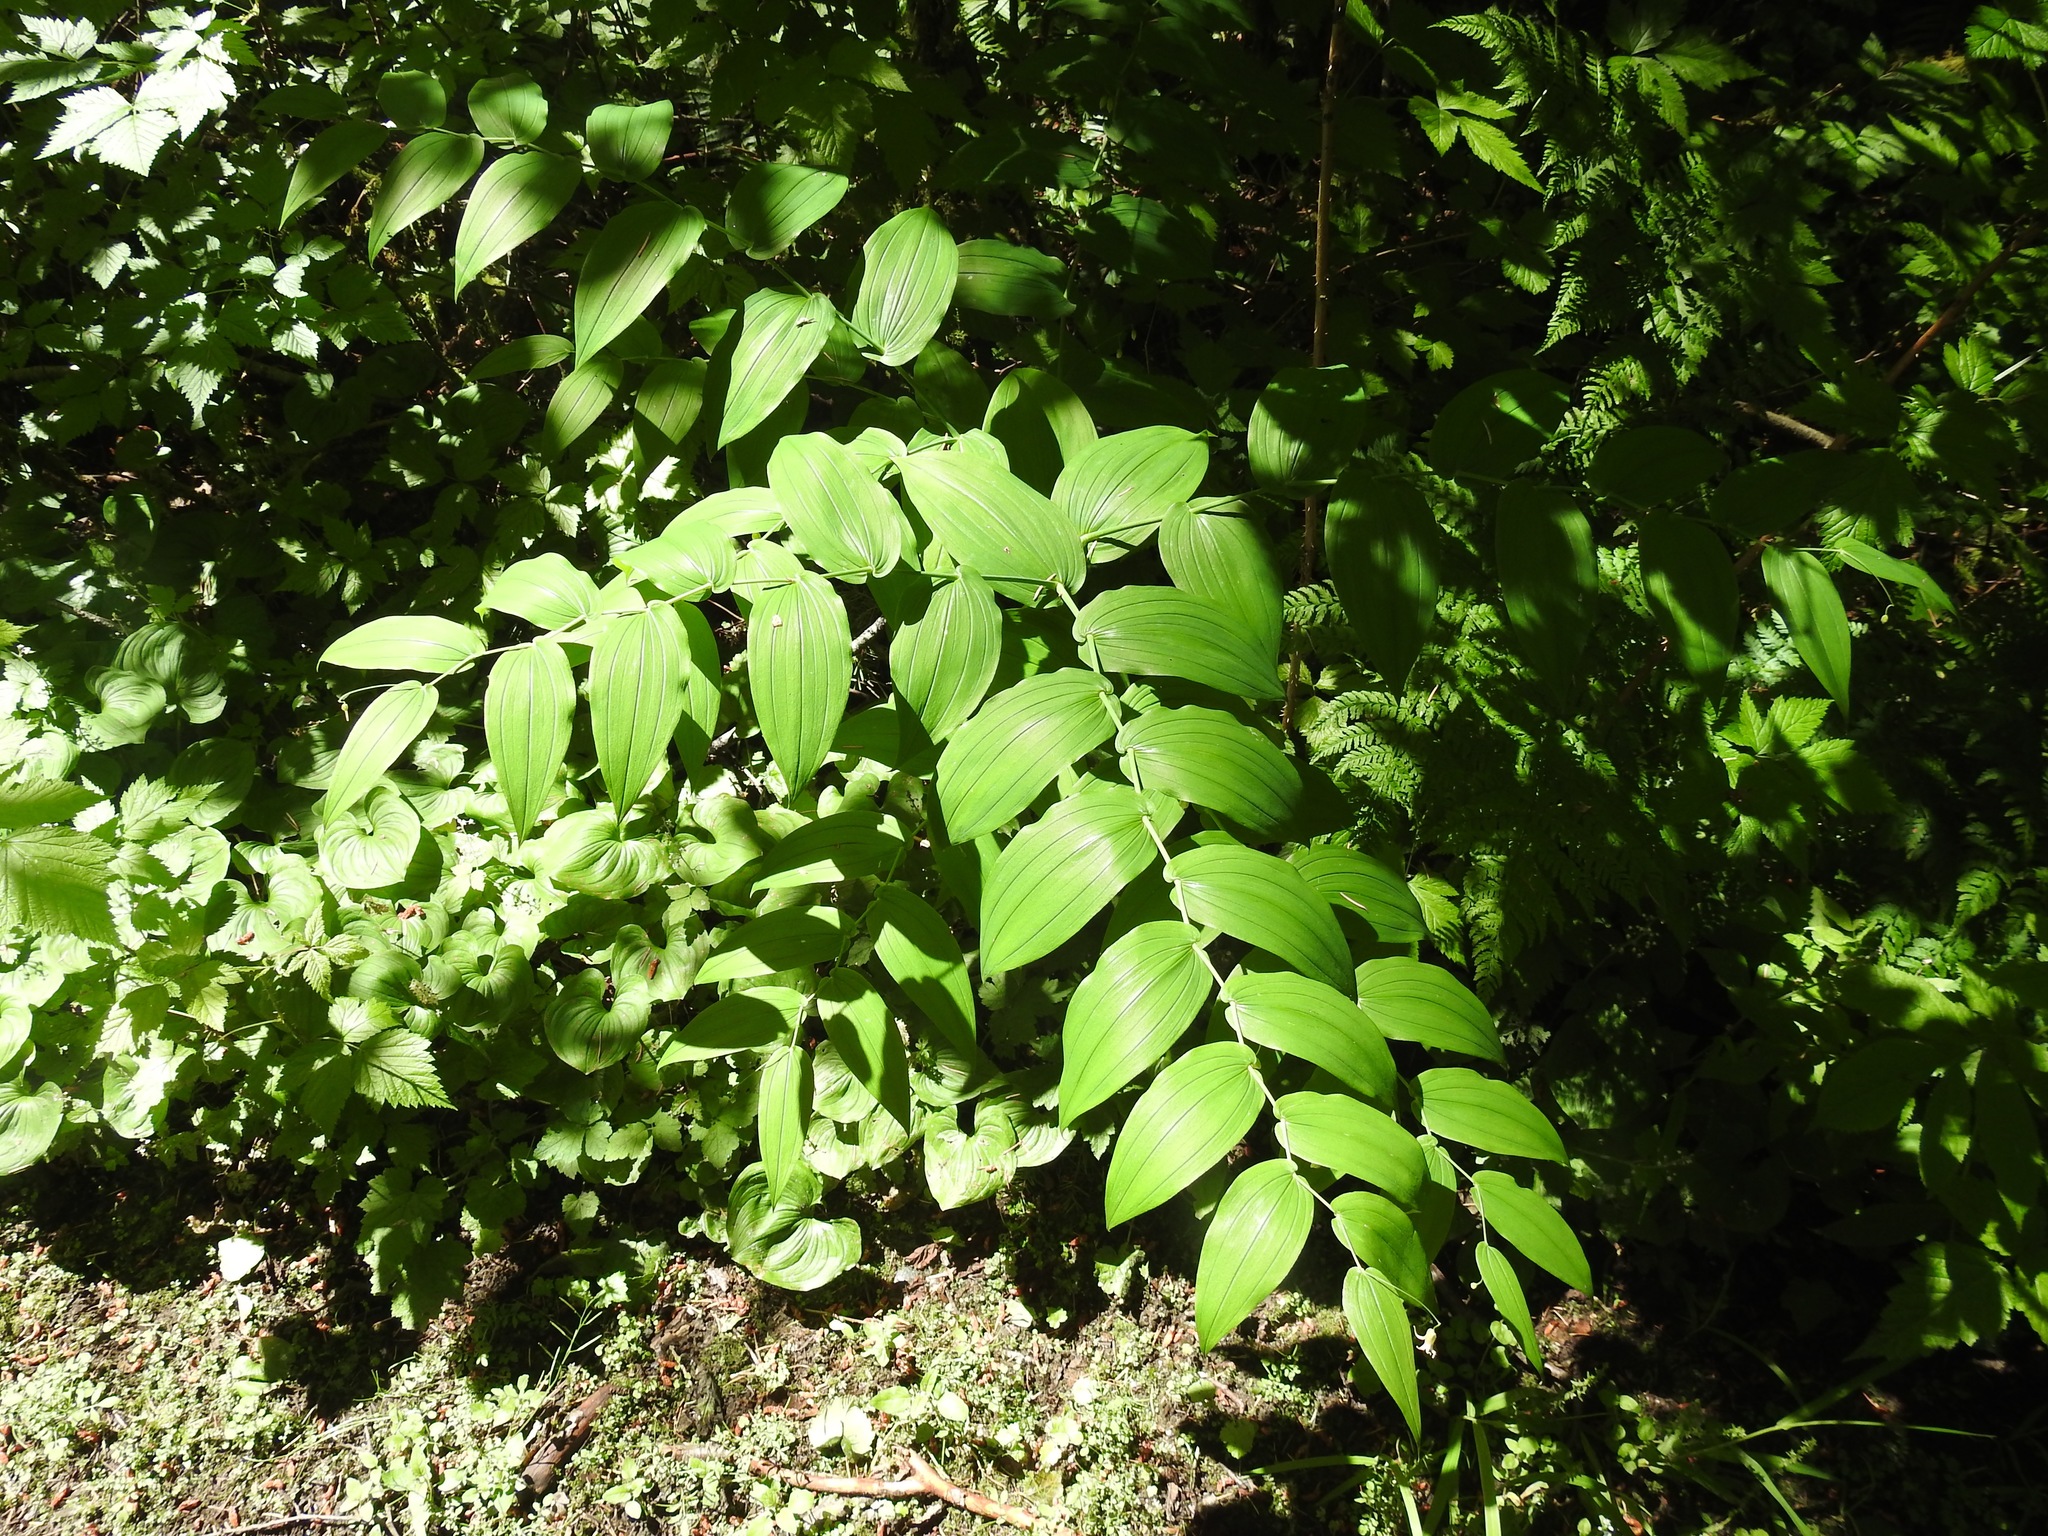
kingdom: Plantae
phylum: Tracheophyta
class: Liliopsida
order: Liliales
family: Liliaceae
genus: Streptopus
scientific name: Streptopus amplexifolius
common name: Clasp twisted stalk
